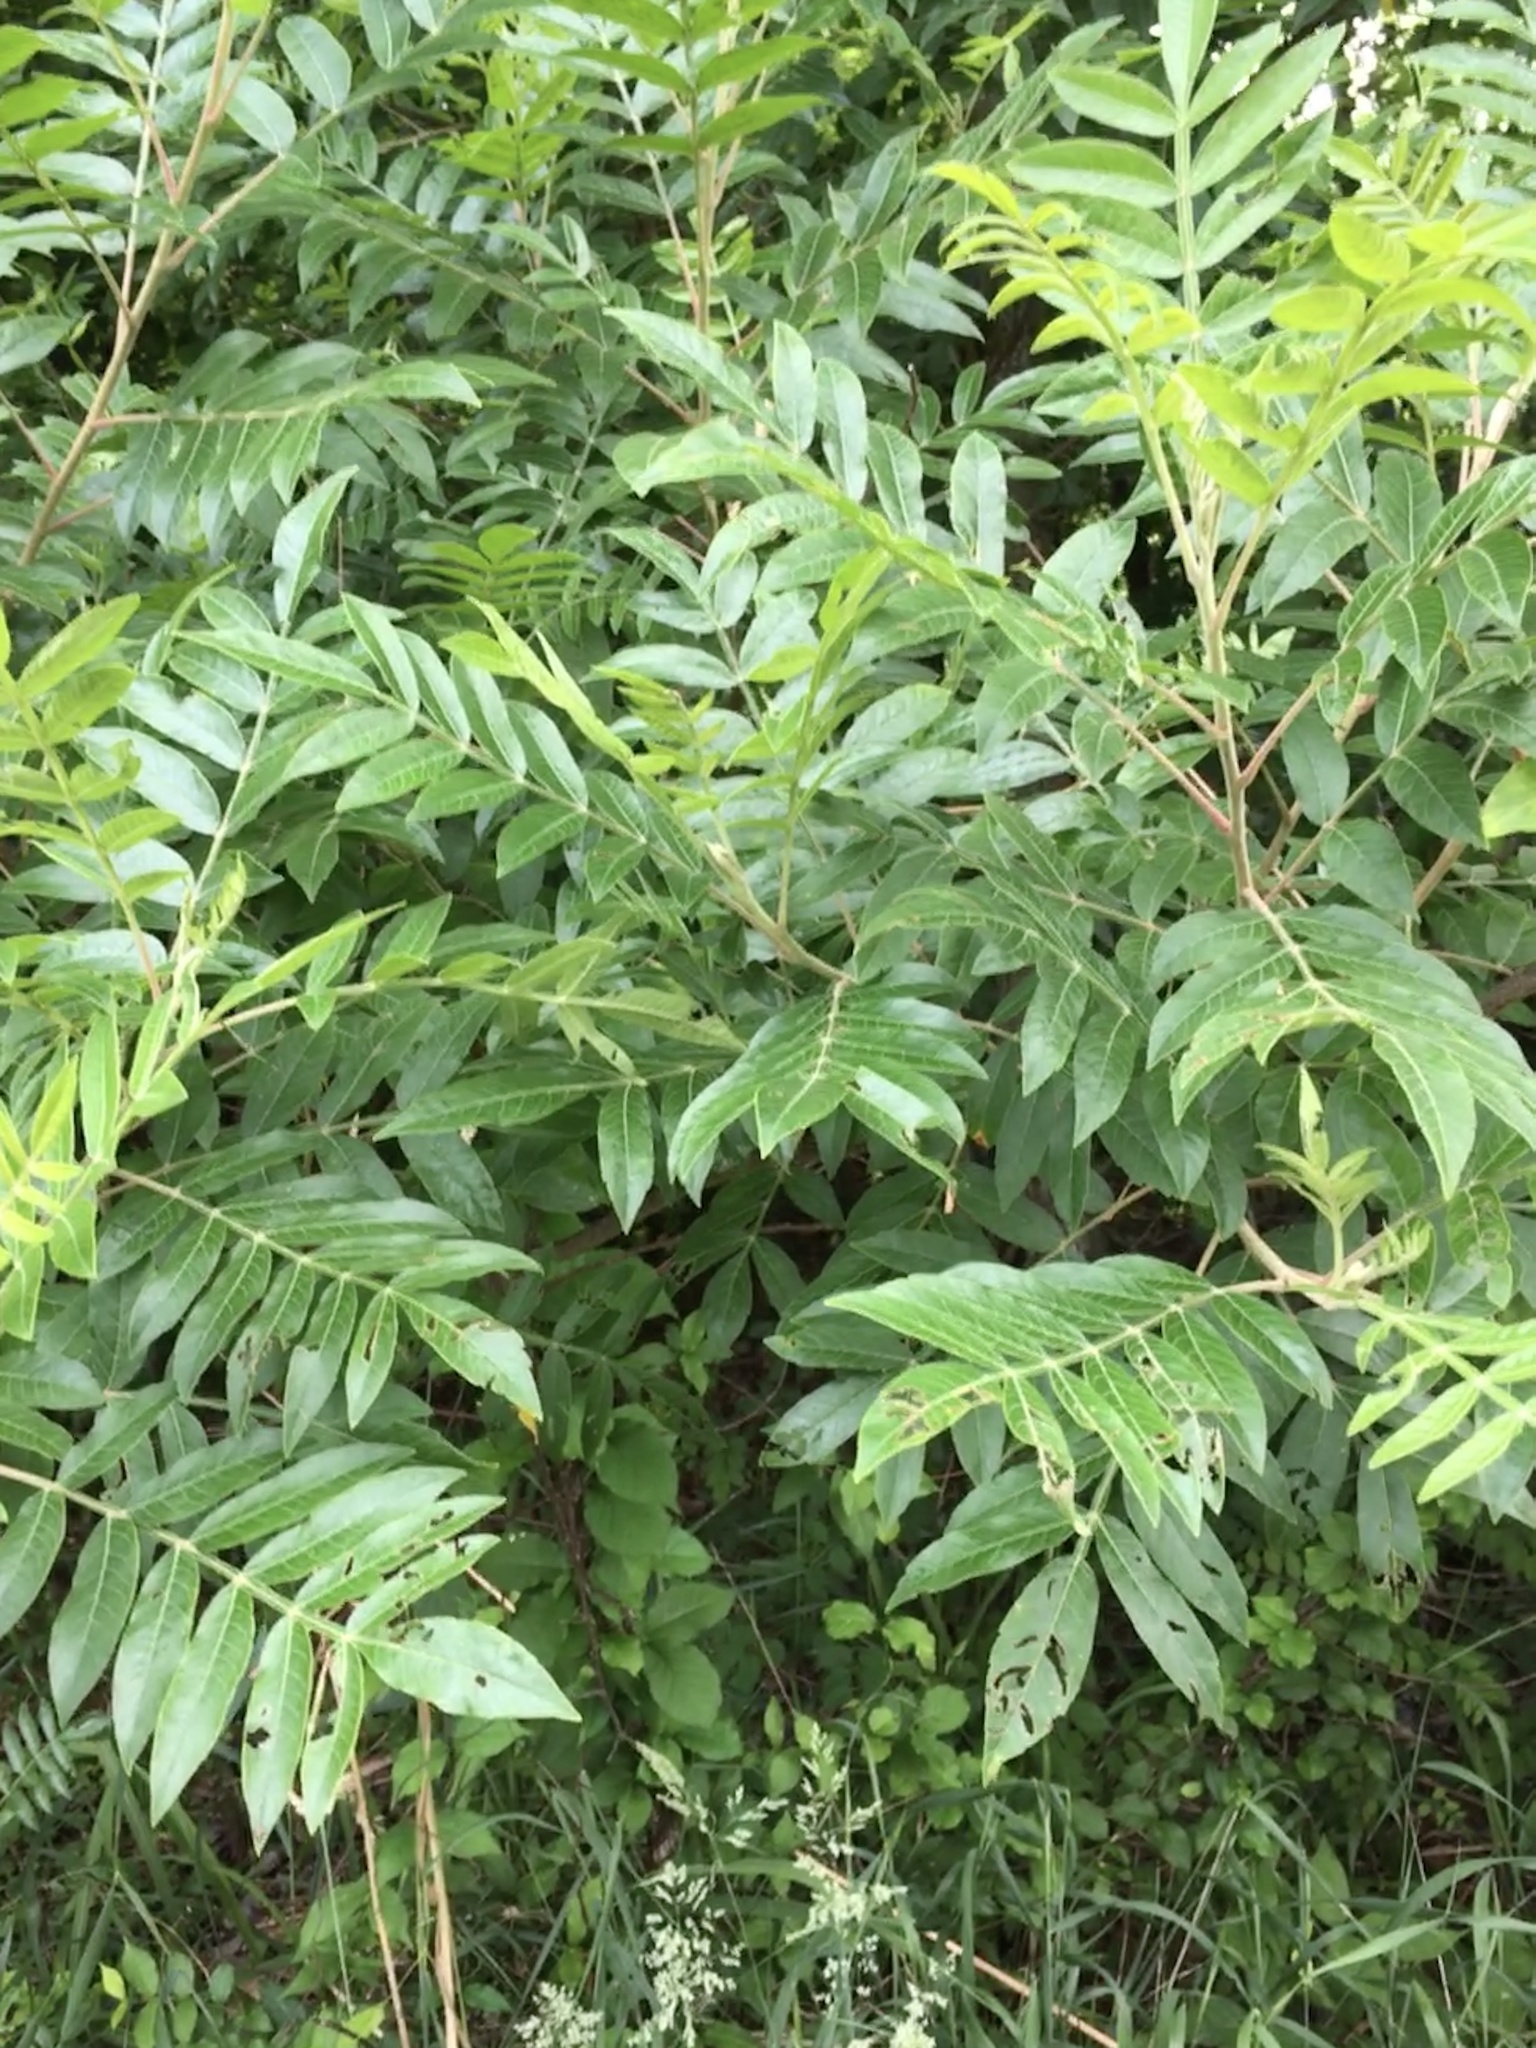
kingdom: Plantae
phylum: Tracheophyta
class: Magnoliopsida
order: Sapindales
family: Anacardiaceae
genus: Rhus
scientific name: Rhus copallina
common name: Shining sumac
